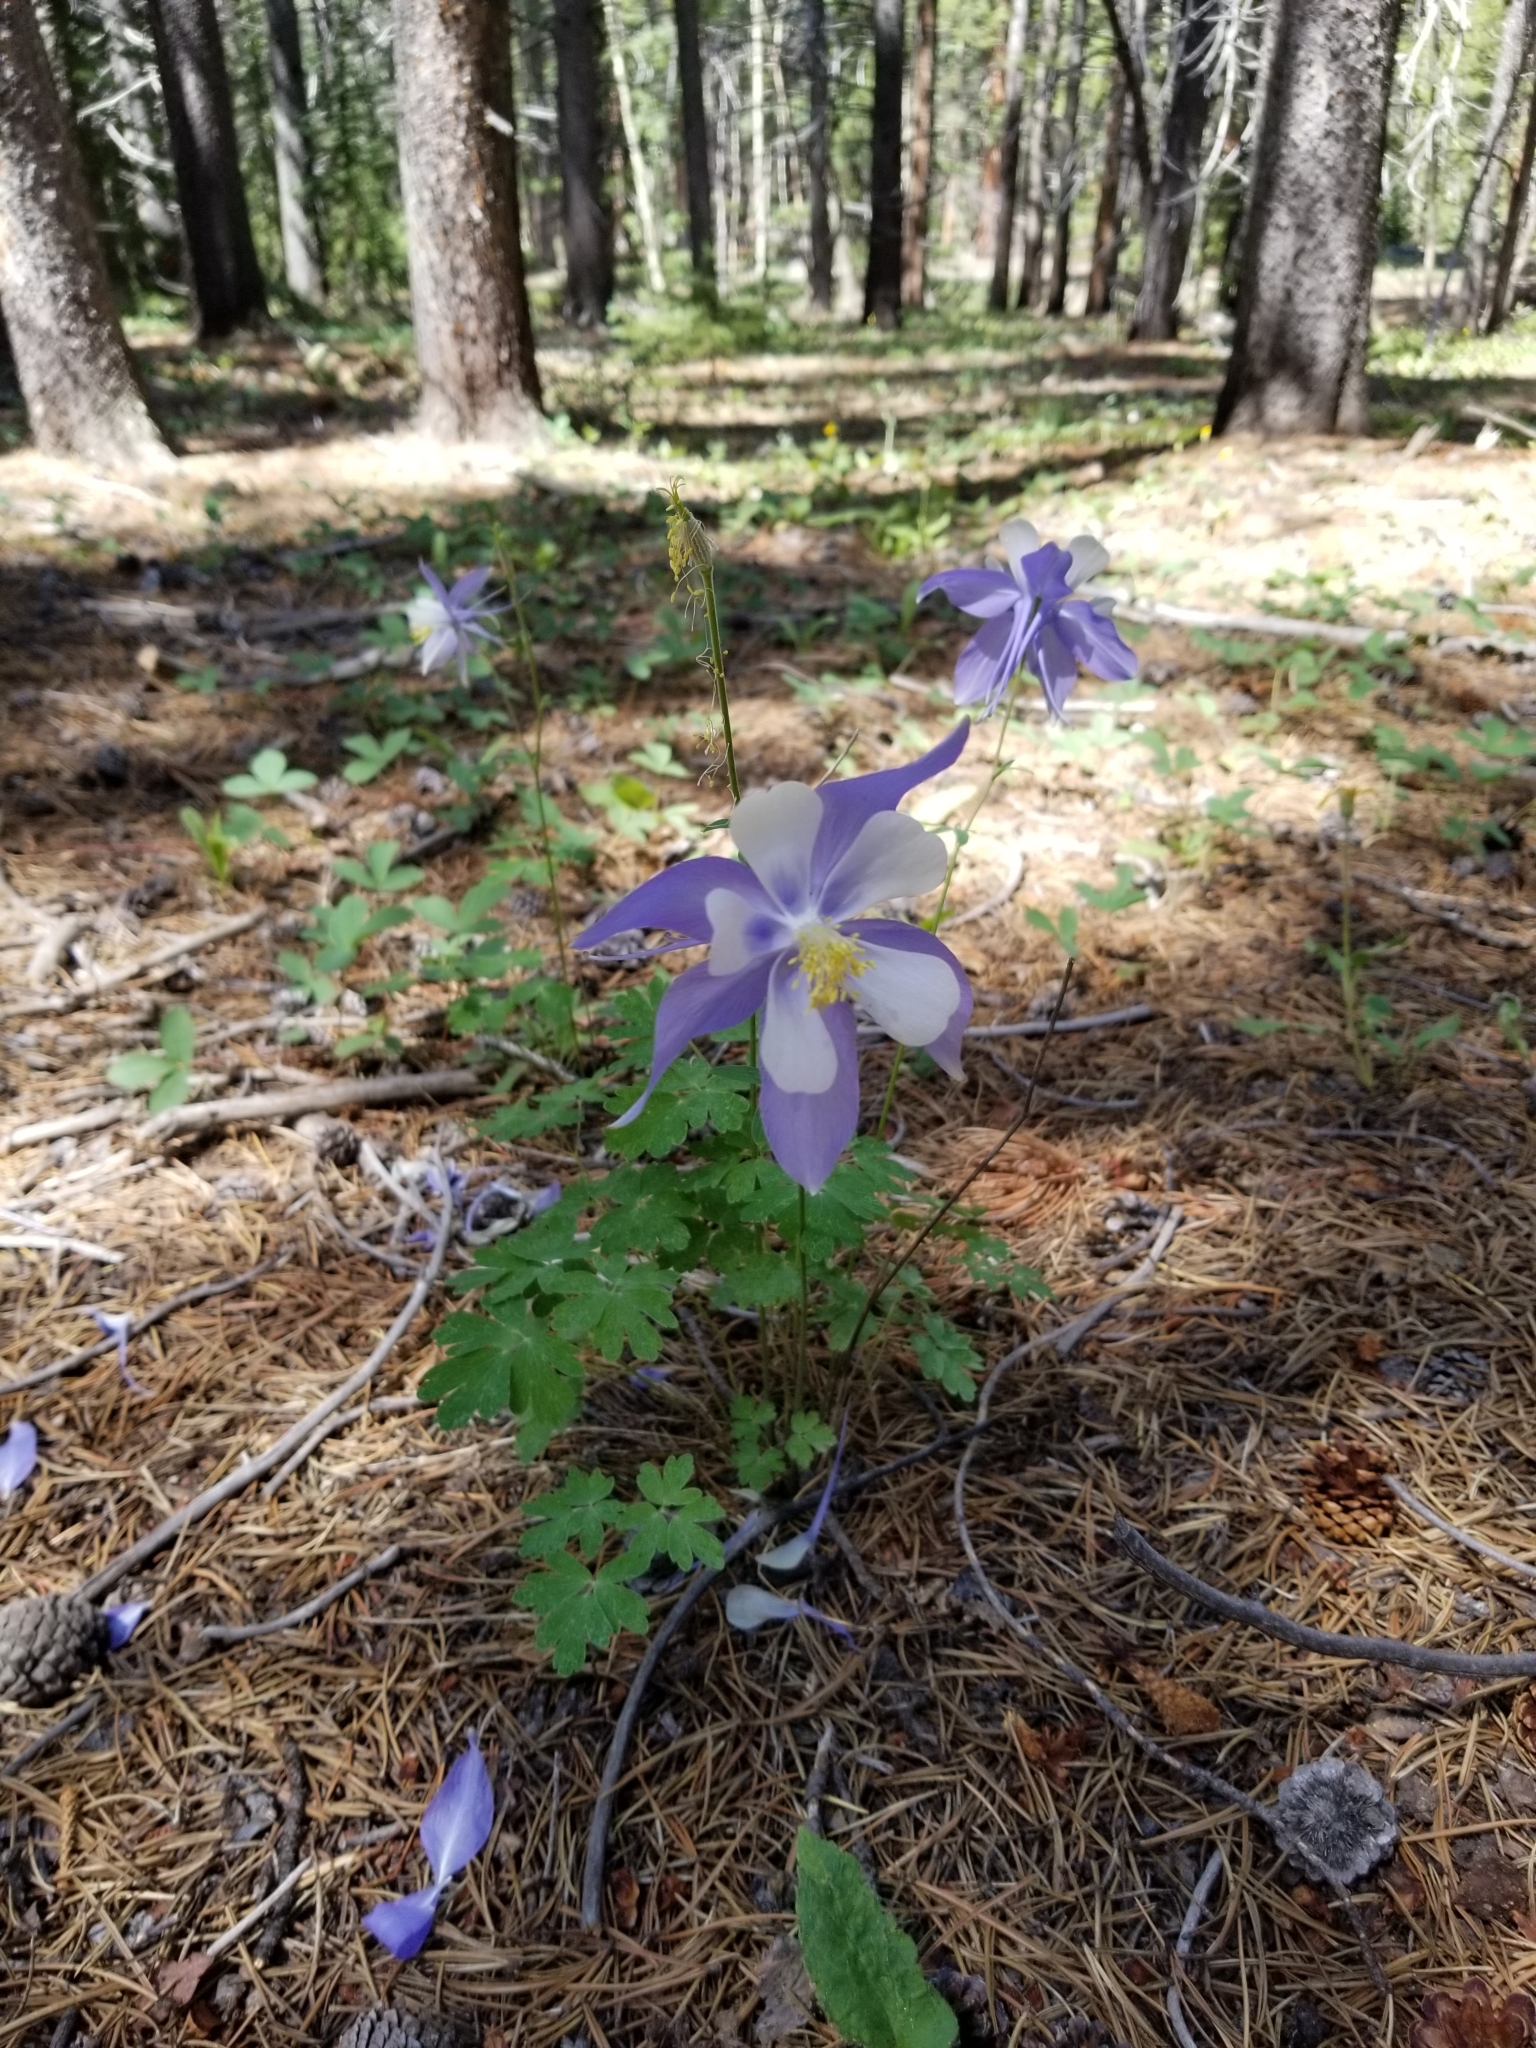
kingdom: Plantae
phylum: Tracheophyta
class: Magnoliopsida
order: Ranunculales
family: Ranunculaceae
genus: Aquilegia
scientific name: Aquilegia coerulea
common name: Rocky mountain columbine
